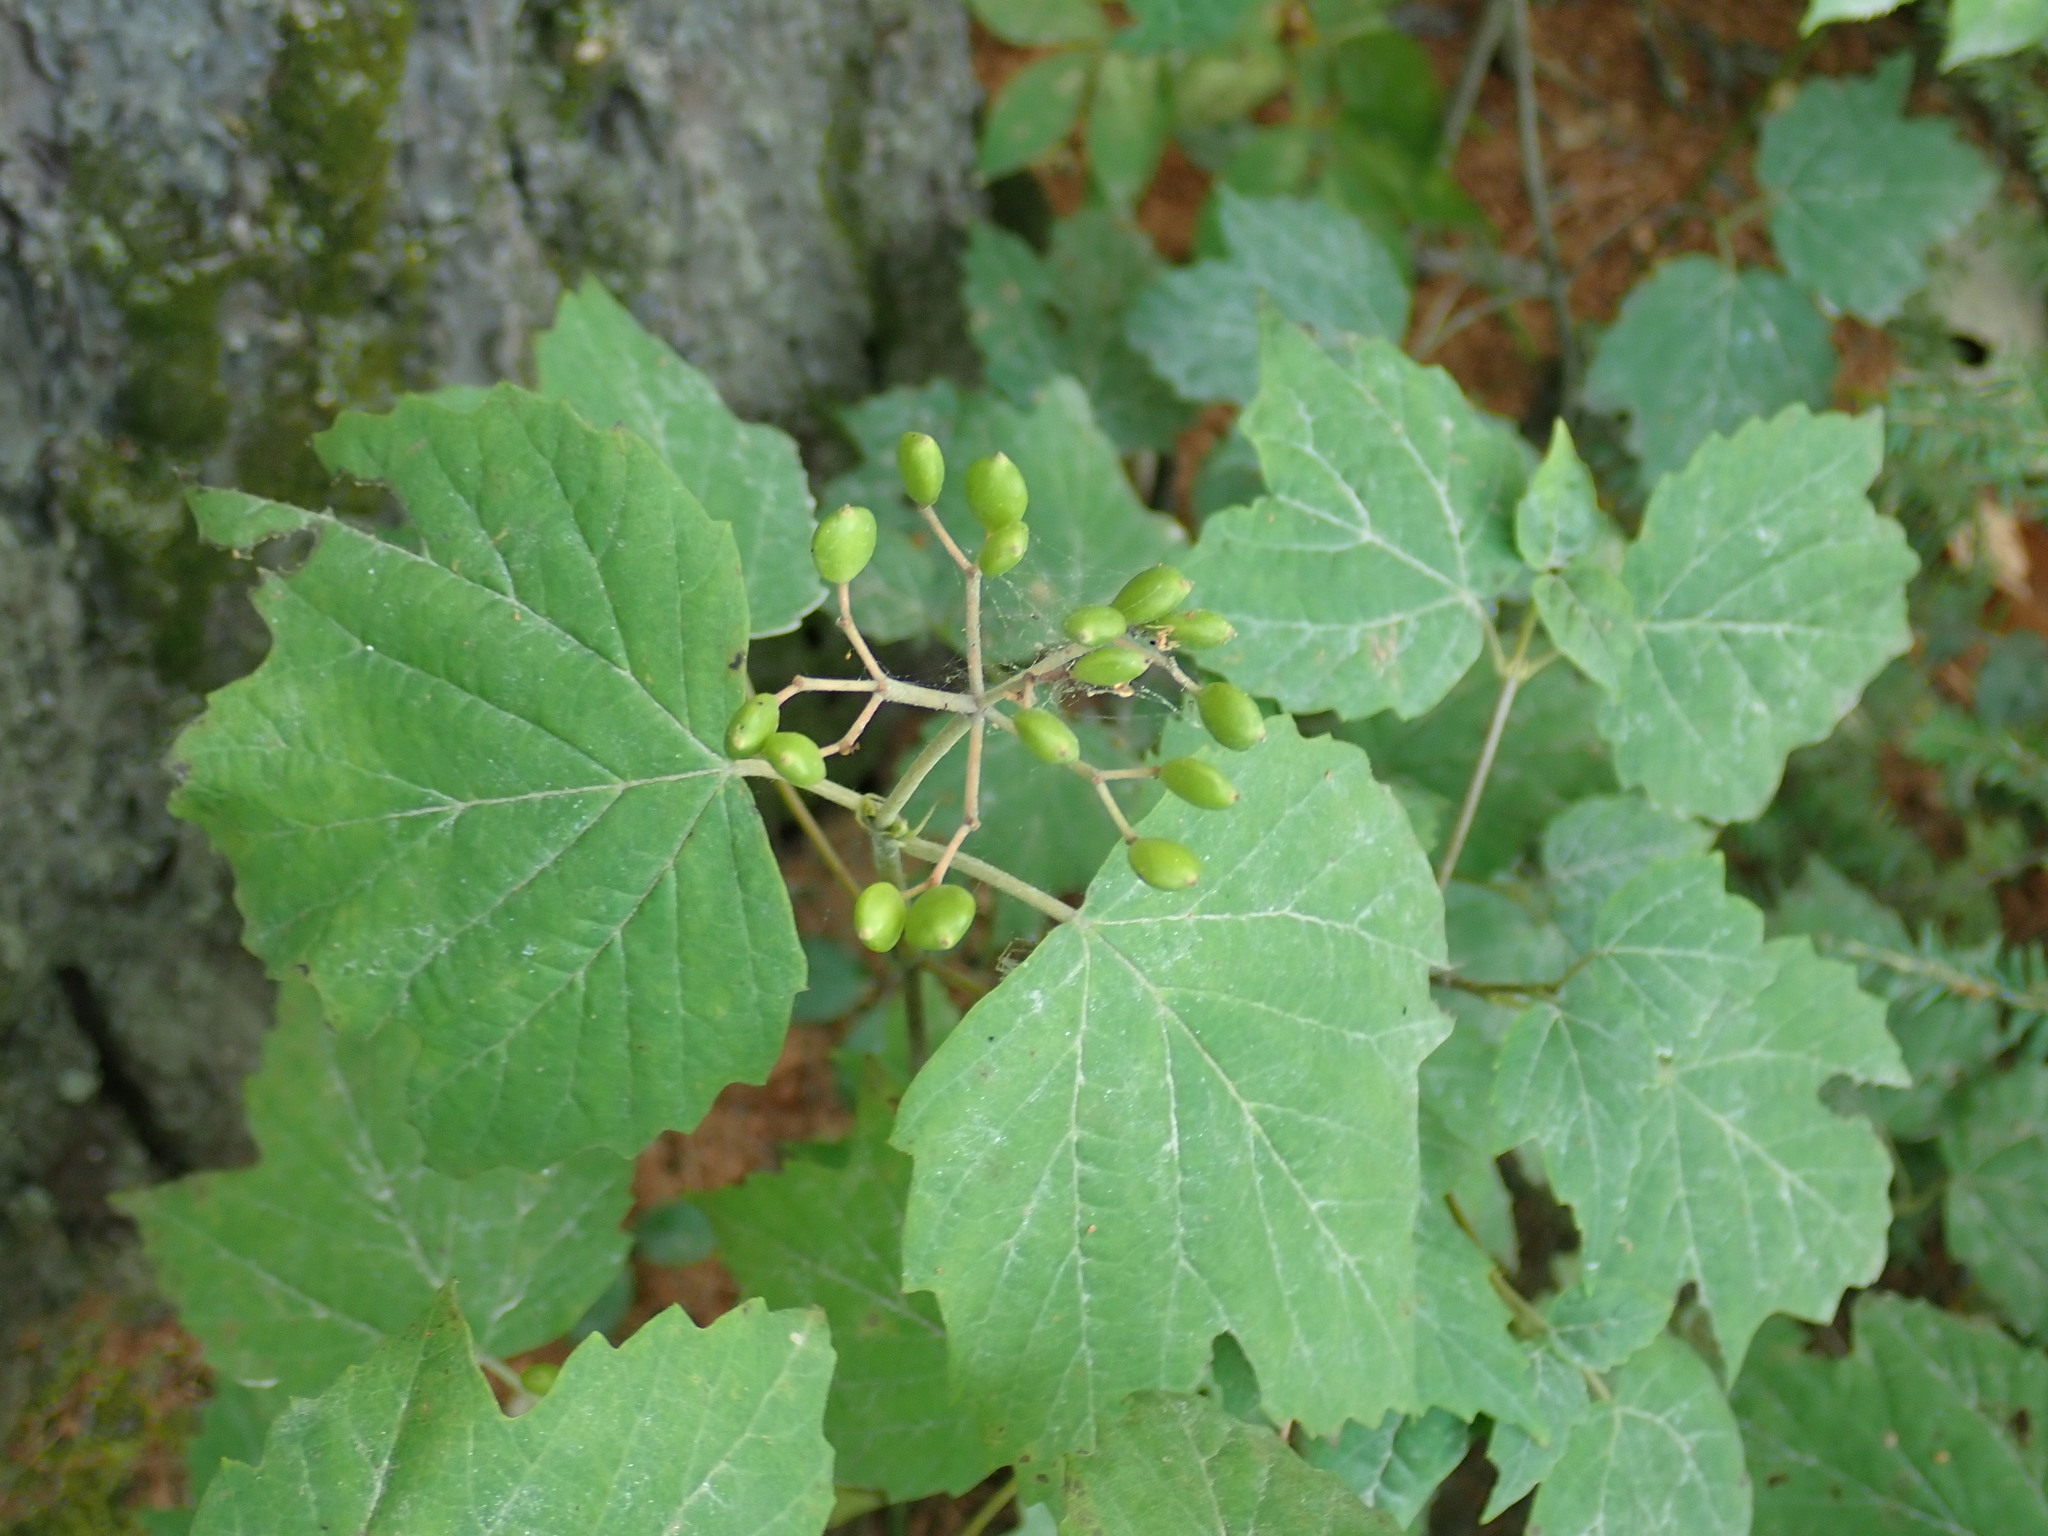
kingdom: Plantae
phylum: Tracheophyta
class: Magnoliopsida
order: Dipsacales
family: Viburnaceae
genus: Viburnum
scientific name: Viburnum acerifolium
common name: Dockmackie
